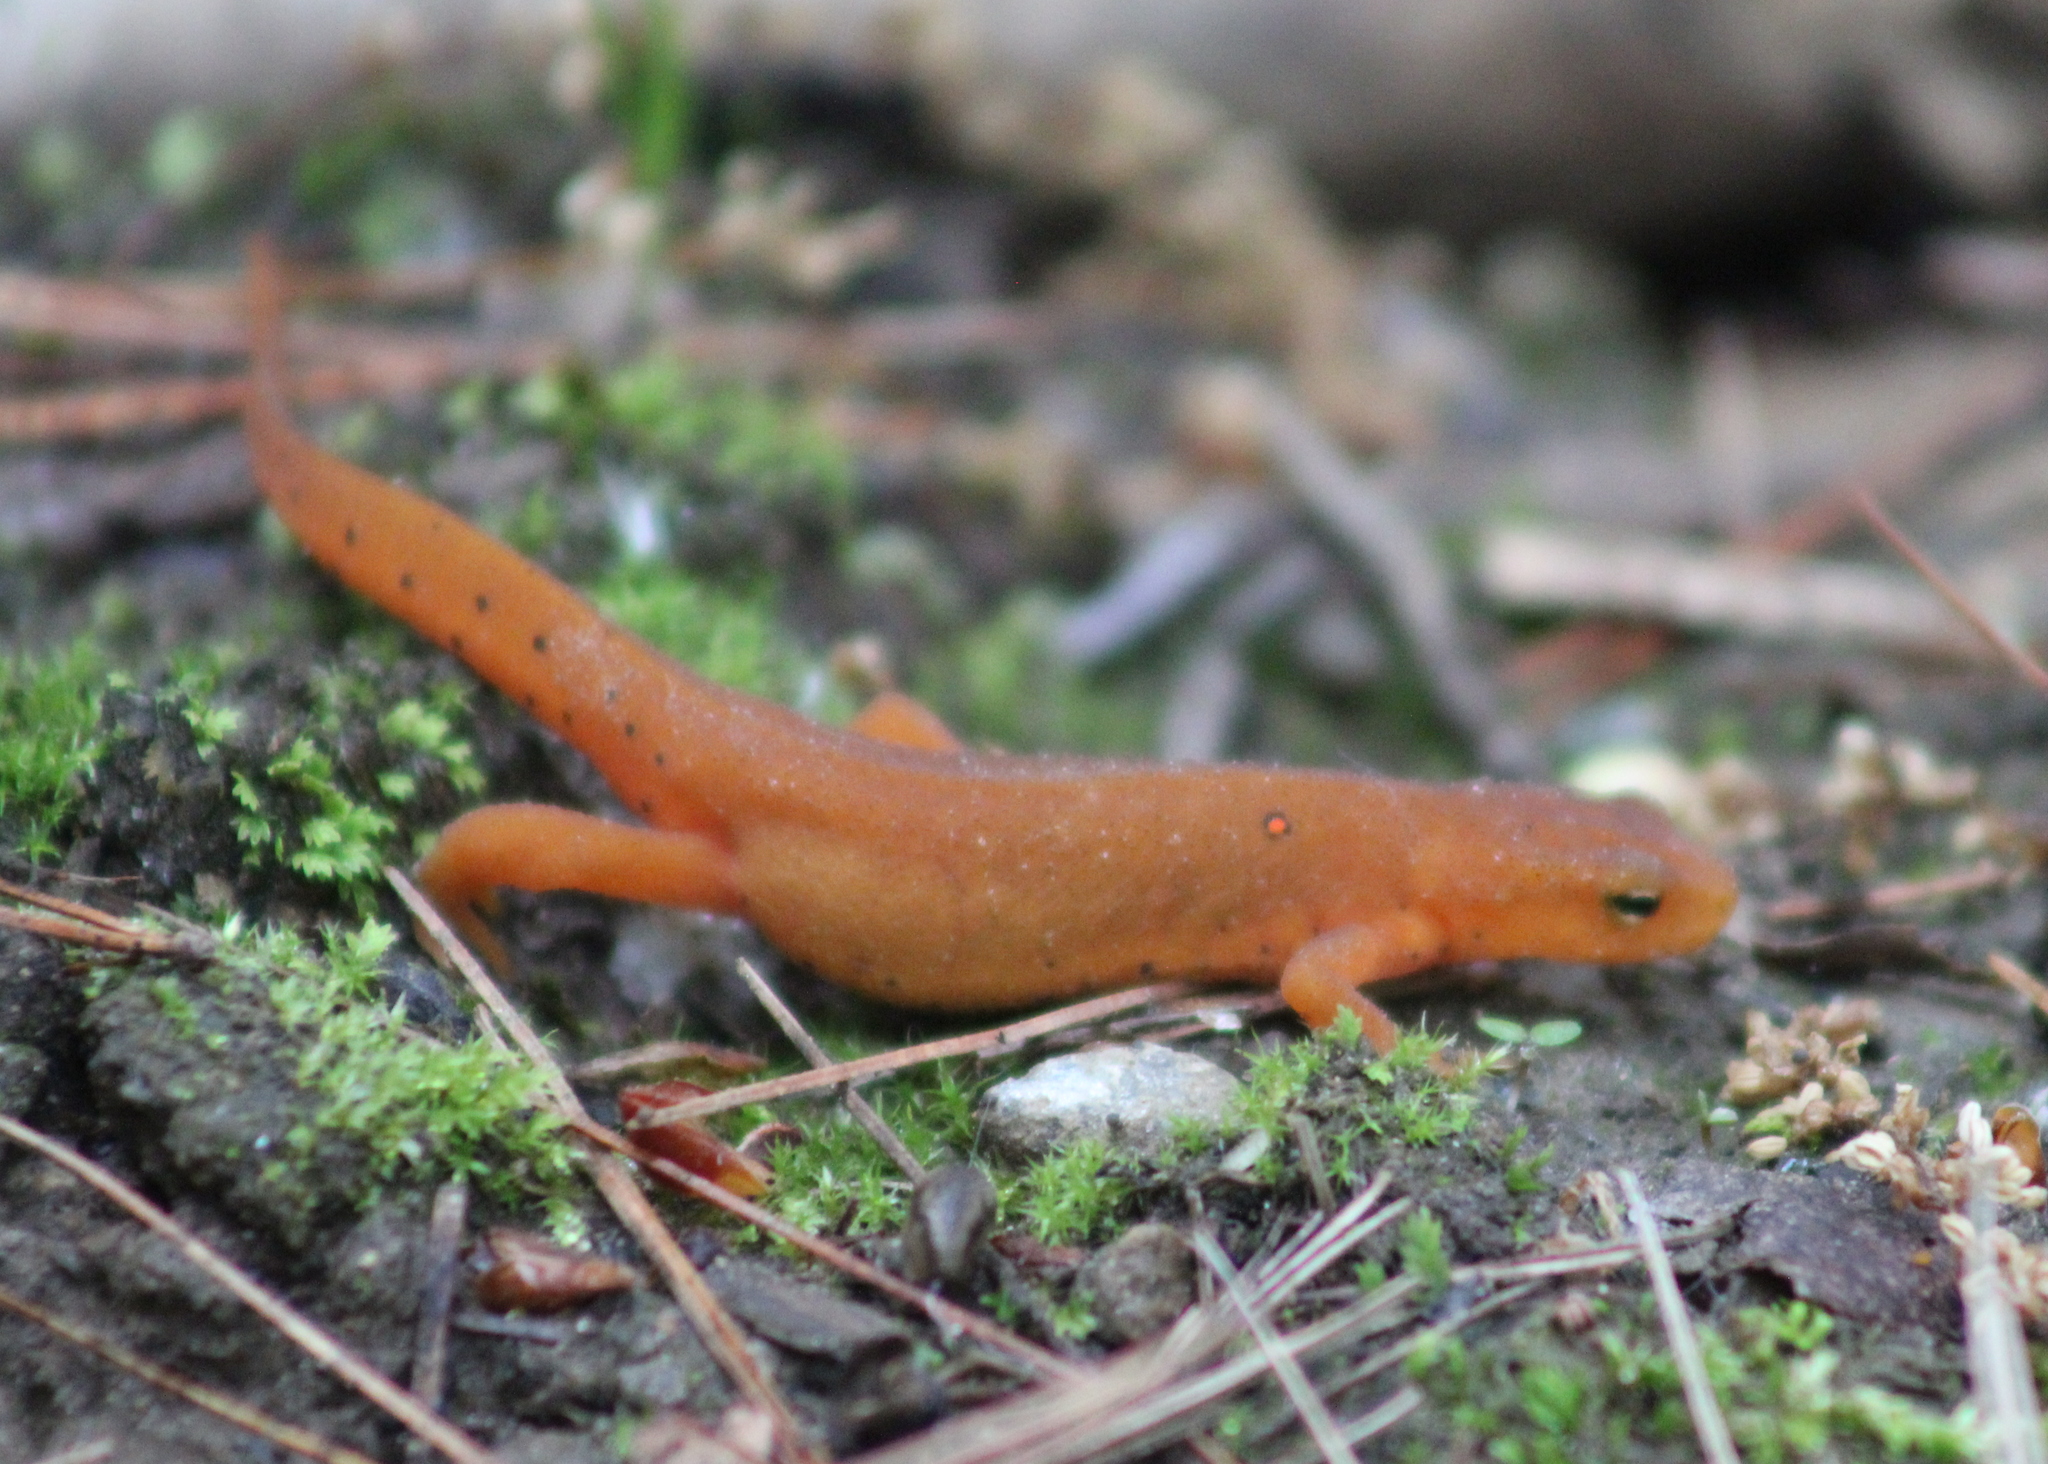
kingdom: Animalia
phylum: Chordata
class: Amphibia
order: Caudata
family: Salamandridae
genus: Notophthalmus
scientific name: Notophthalmus viridescens
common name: Eastern newt
